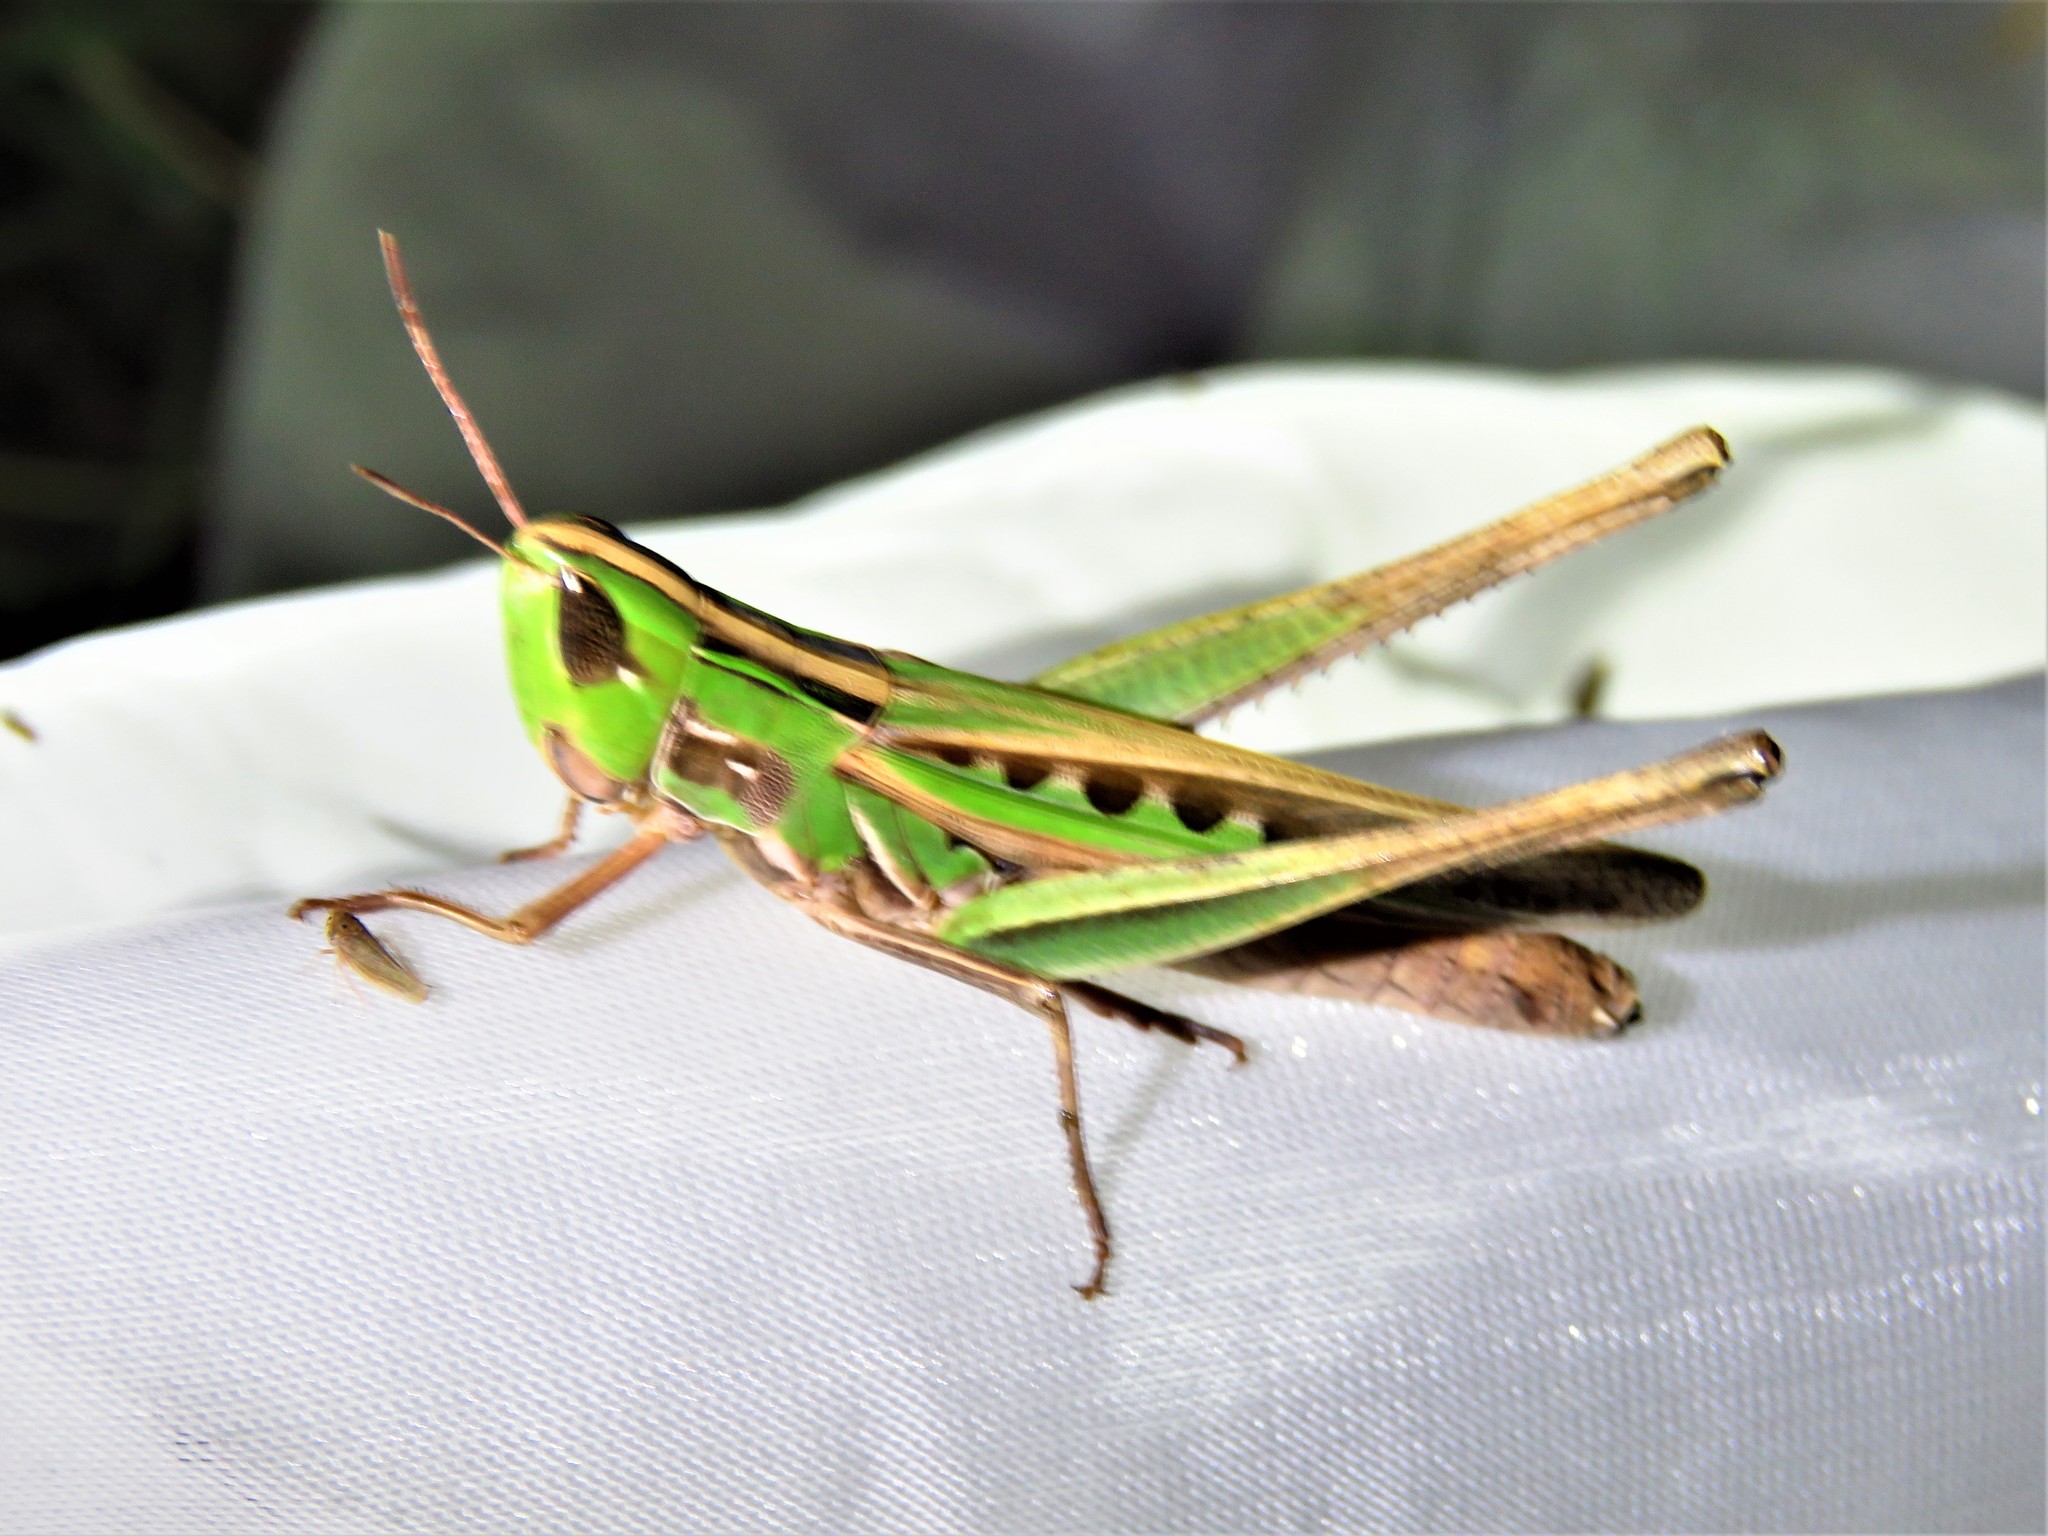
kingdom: Animalia
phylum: Arthropoda
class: Insecta
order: Orthoptera
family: Acrididae
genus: Syrbula
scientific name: Syrbula admirabilis
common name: Handsome grasshopper
